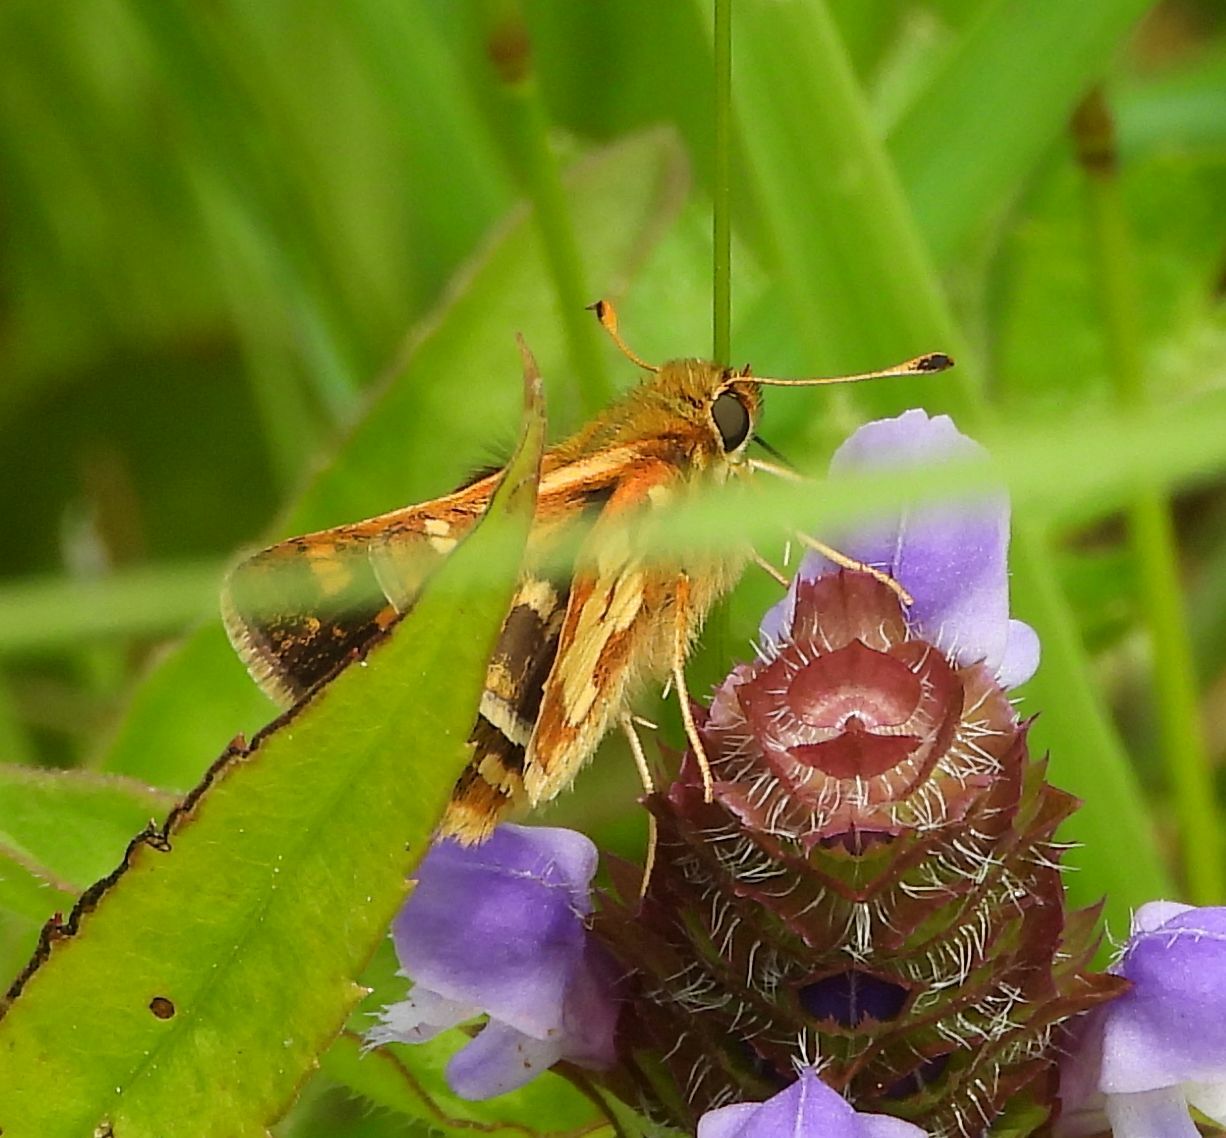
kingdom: Animalia
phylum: Arthropoda
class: Insecta
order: Lepidoptera
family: Hesperiidae
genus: Polites
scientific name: Polites coras
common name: Peck's skipper
